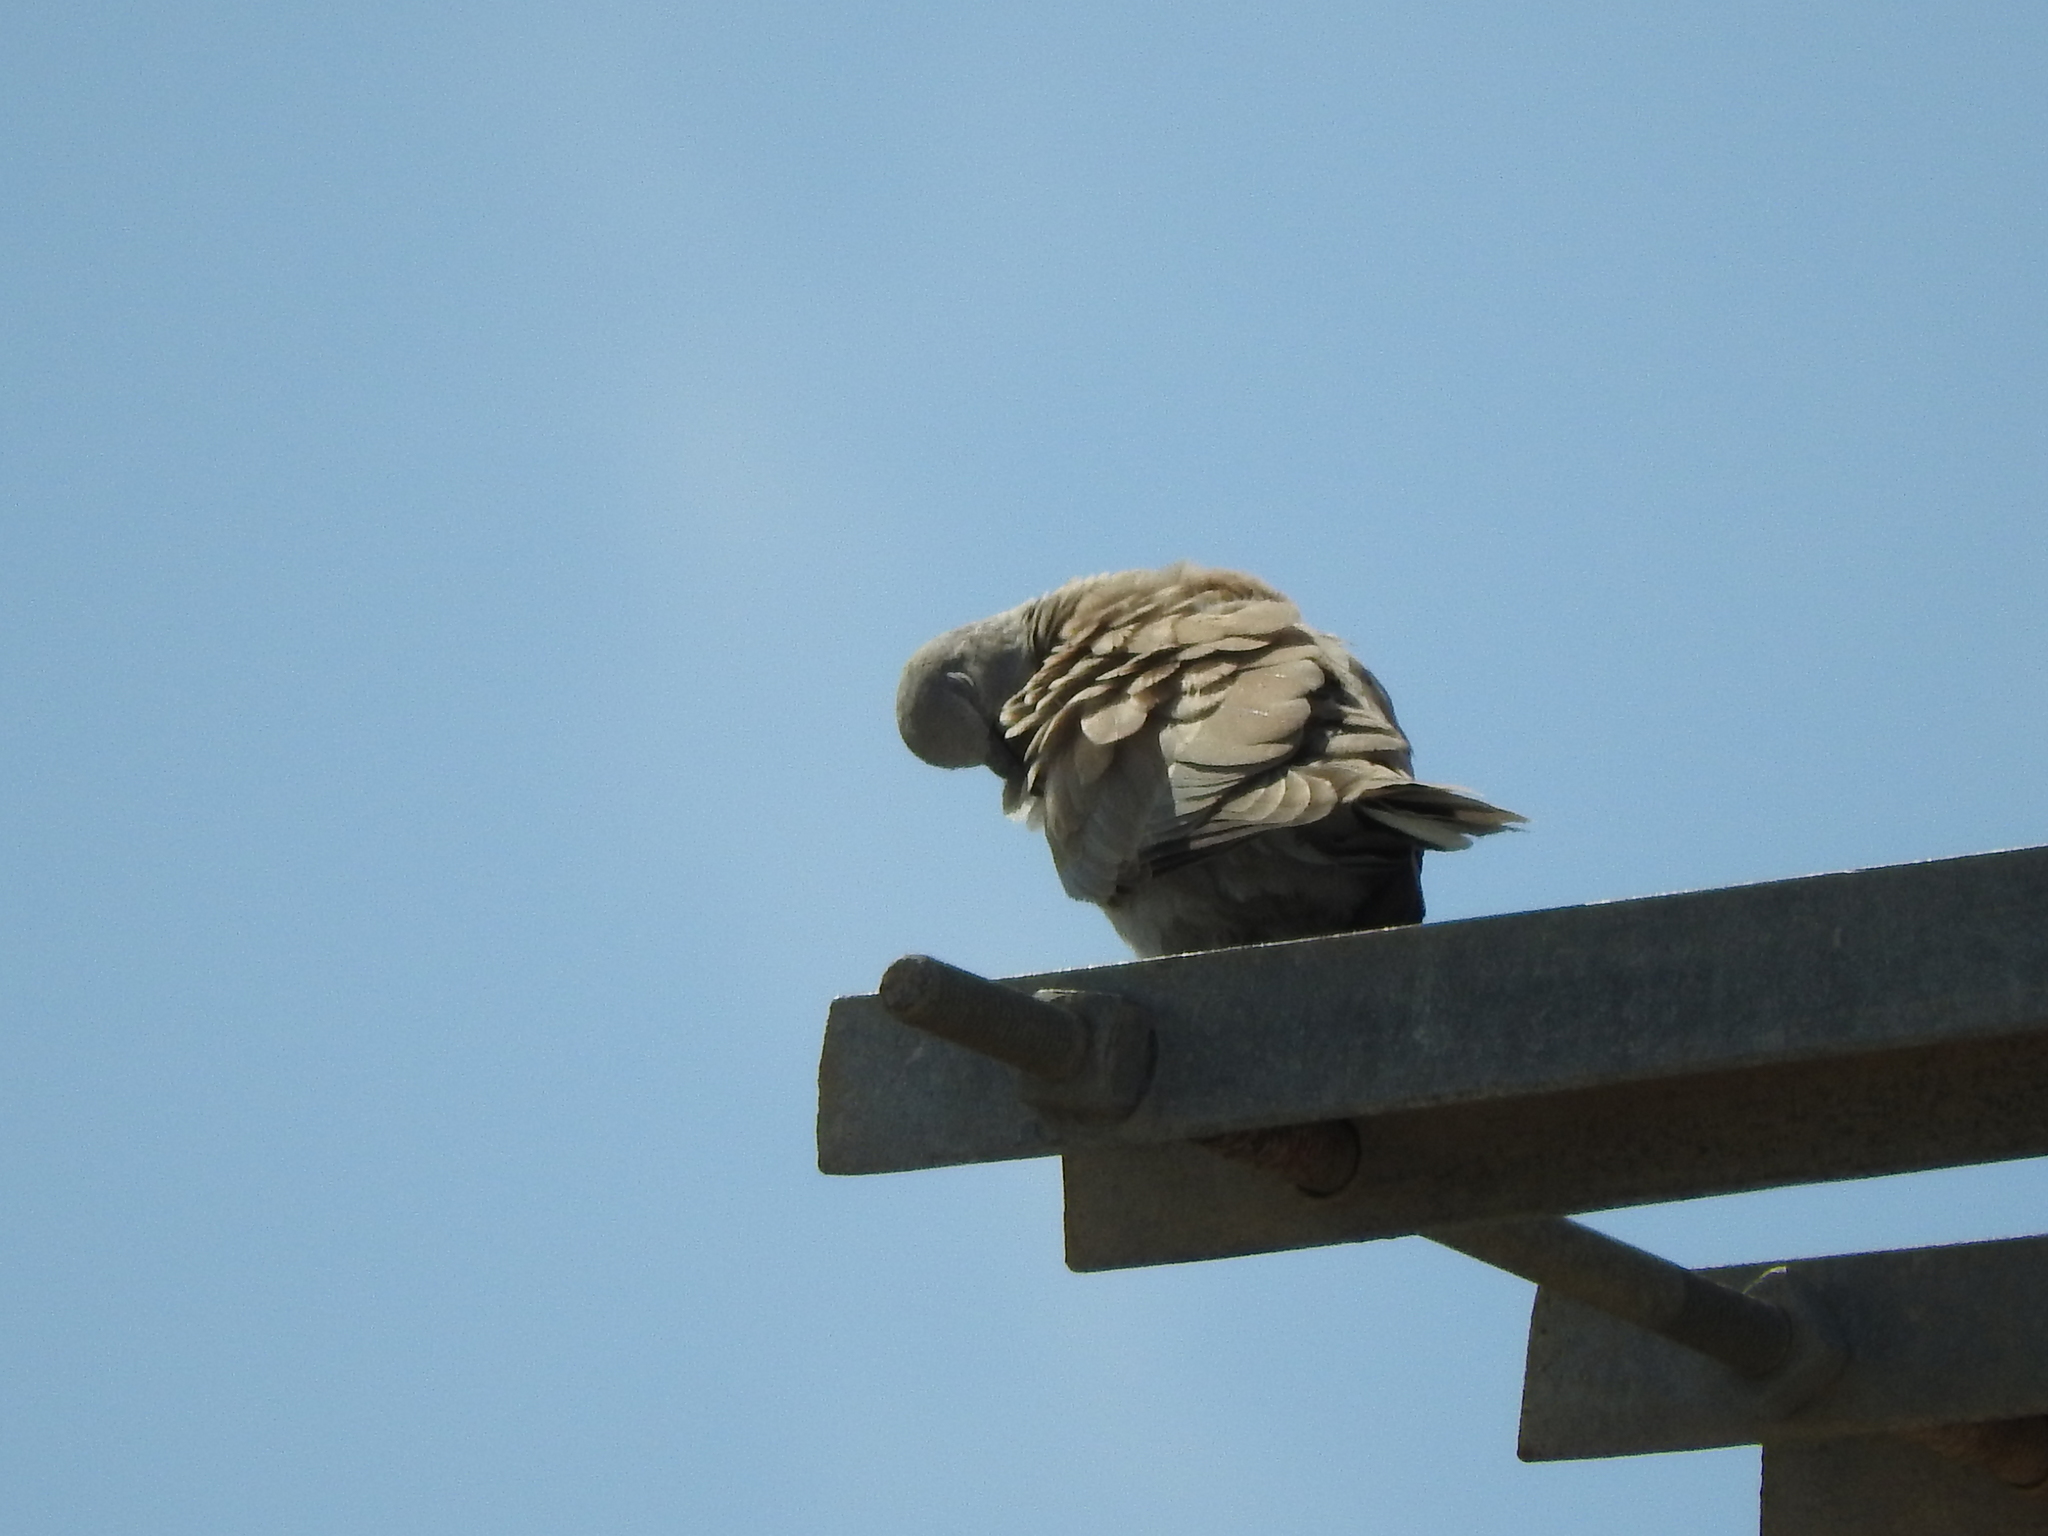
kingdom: Animalia
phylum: Chordata
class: Aves
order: Columbiformes
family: Columbidae
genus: Streptopelia
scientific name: Streptopelia decaocto
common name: Eurasian collared dove
